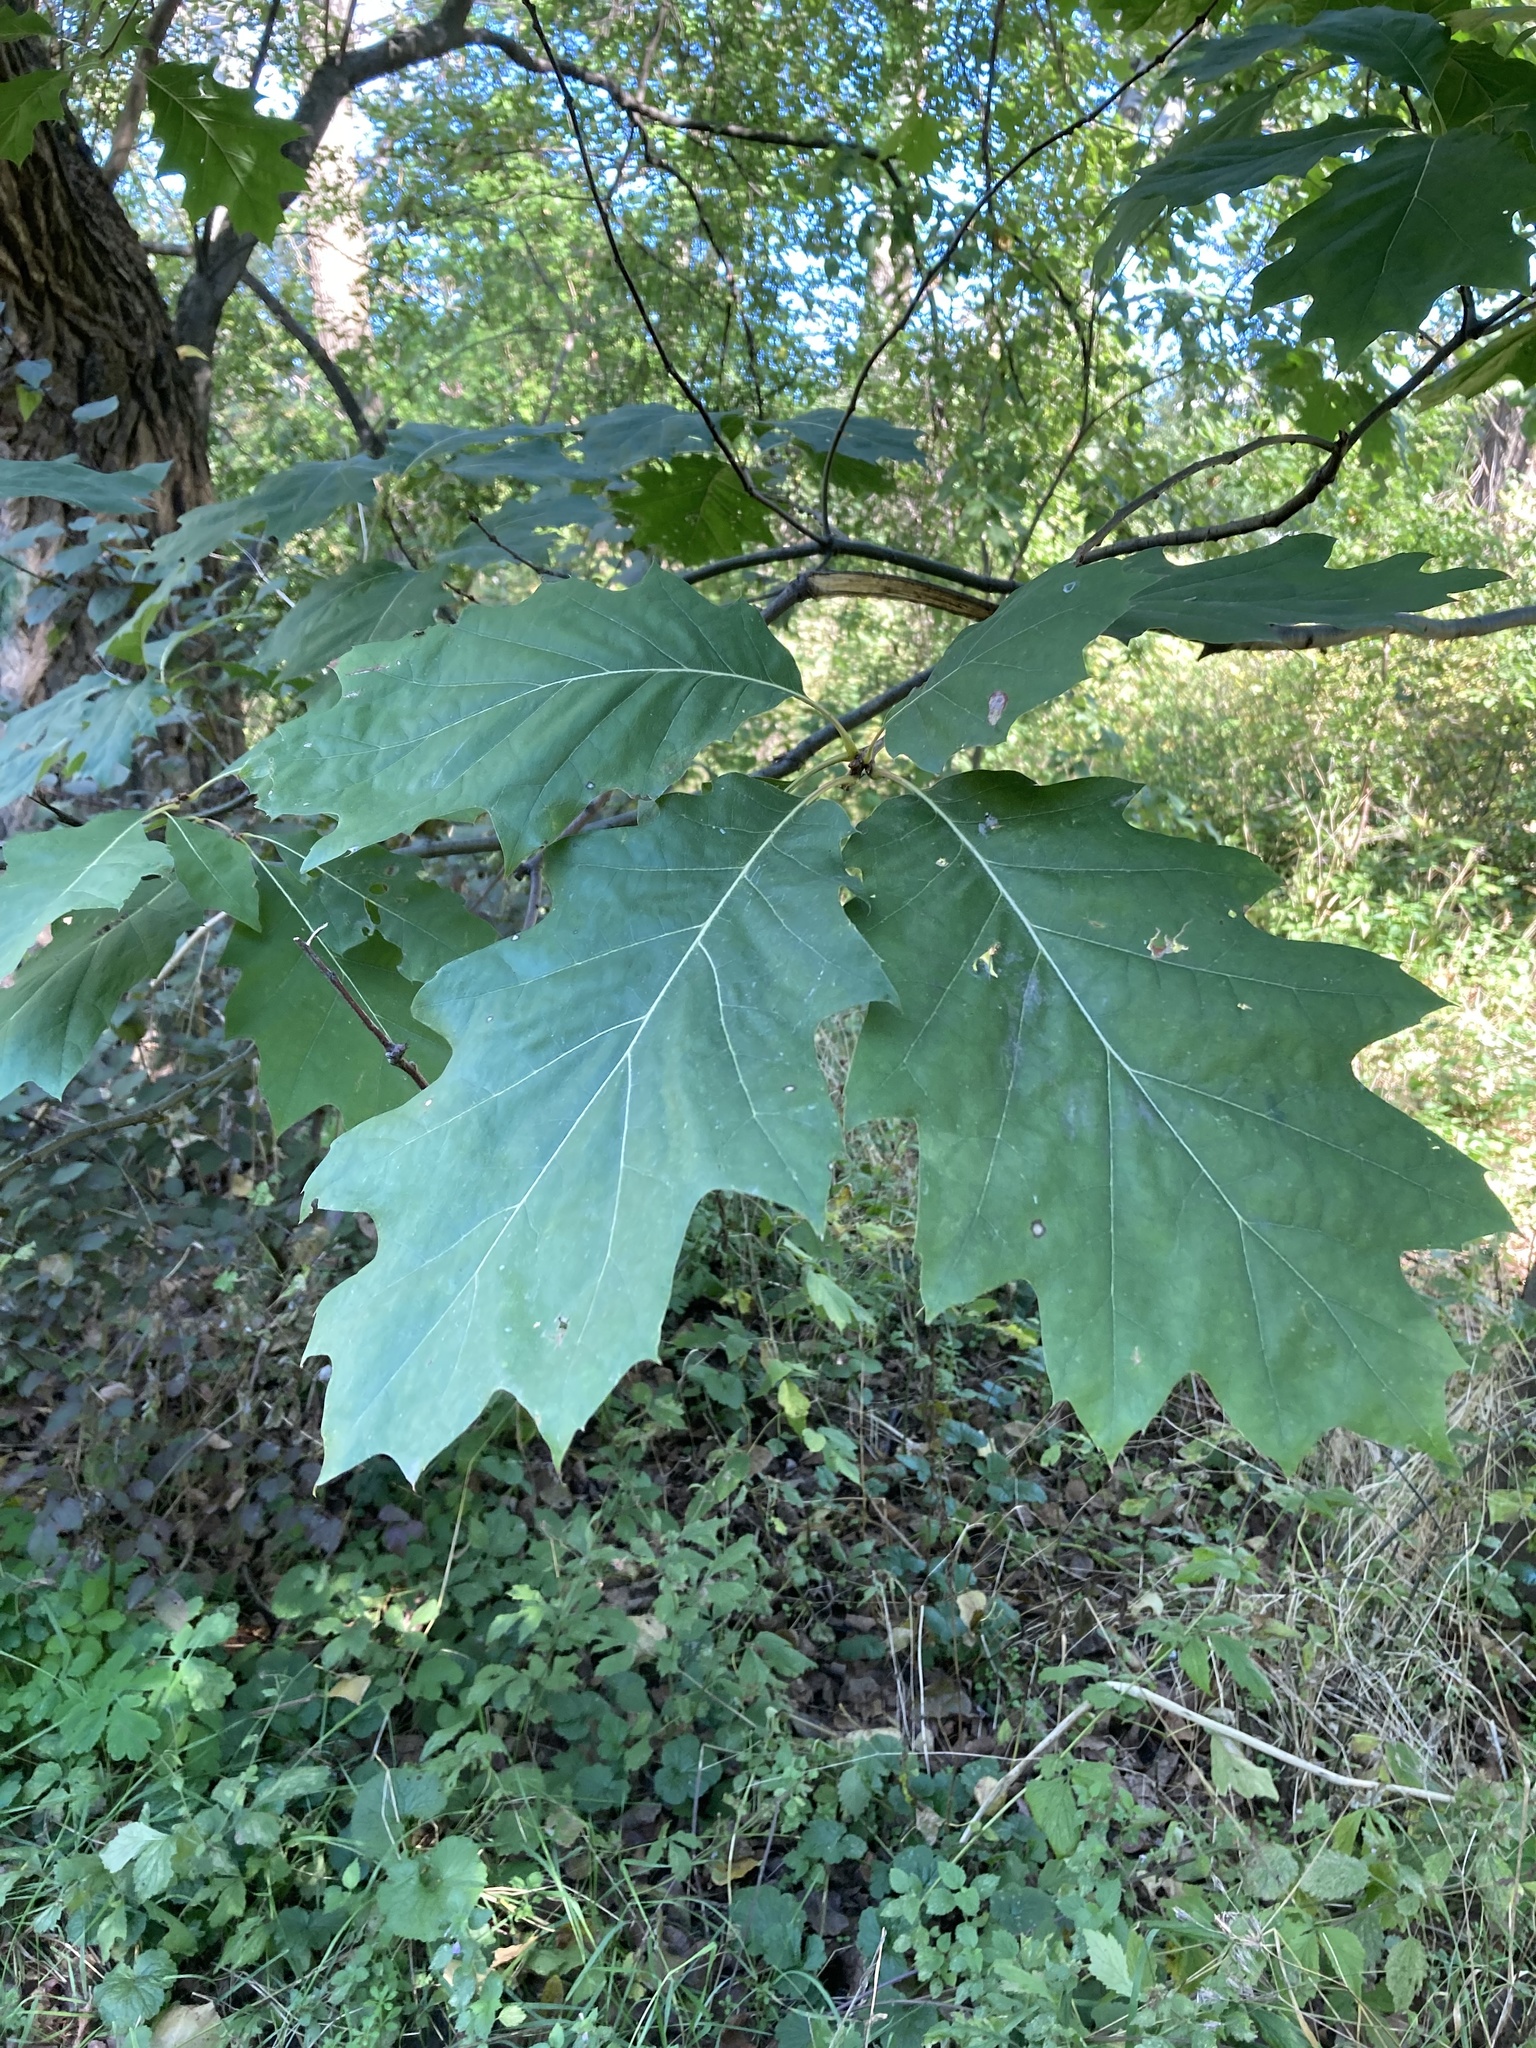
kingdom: Plantae
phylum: Tracheophyta
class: Magnoliopsida
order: Fagales
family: Fagaceae
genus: Quercus
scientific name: Quercus rubra
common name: Red oak
